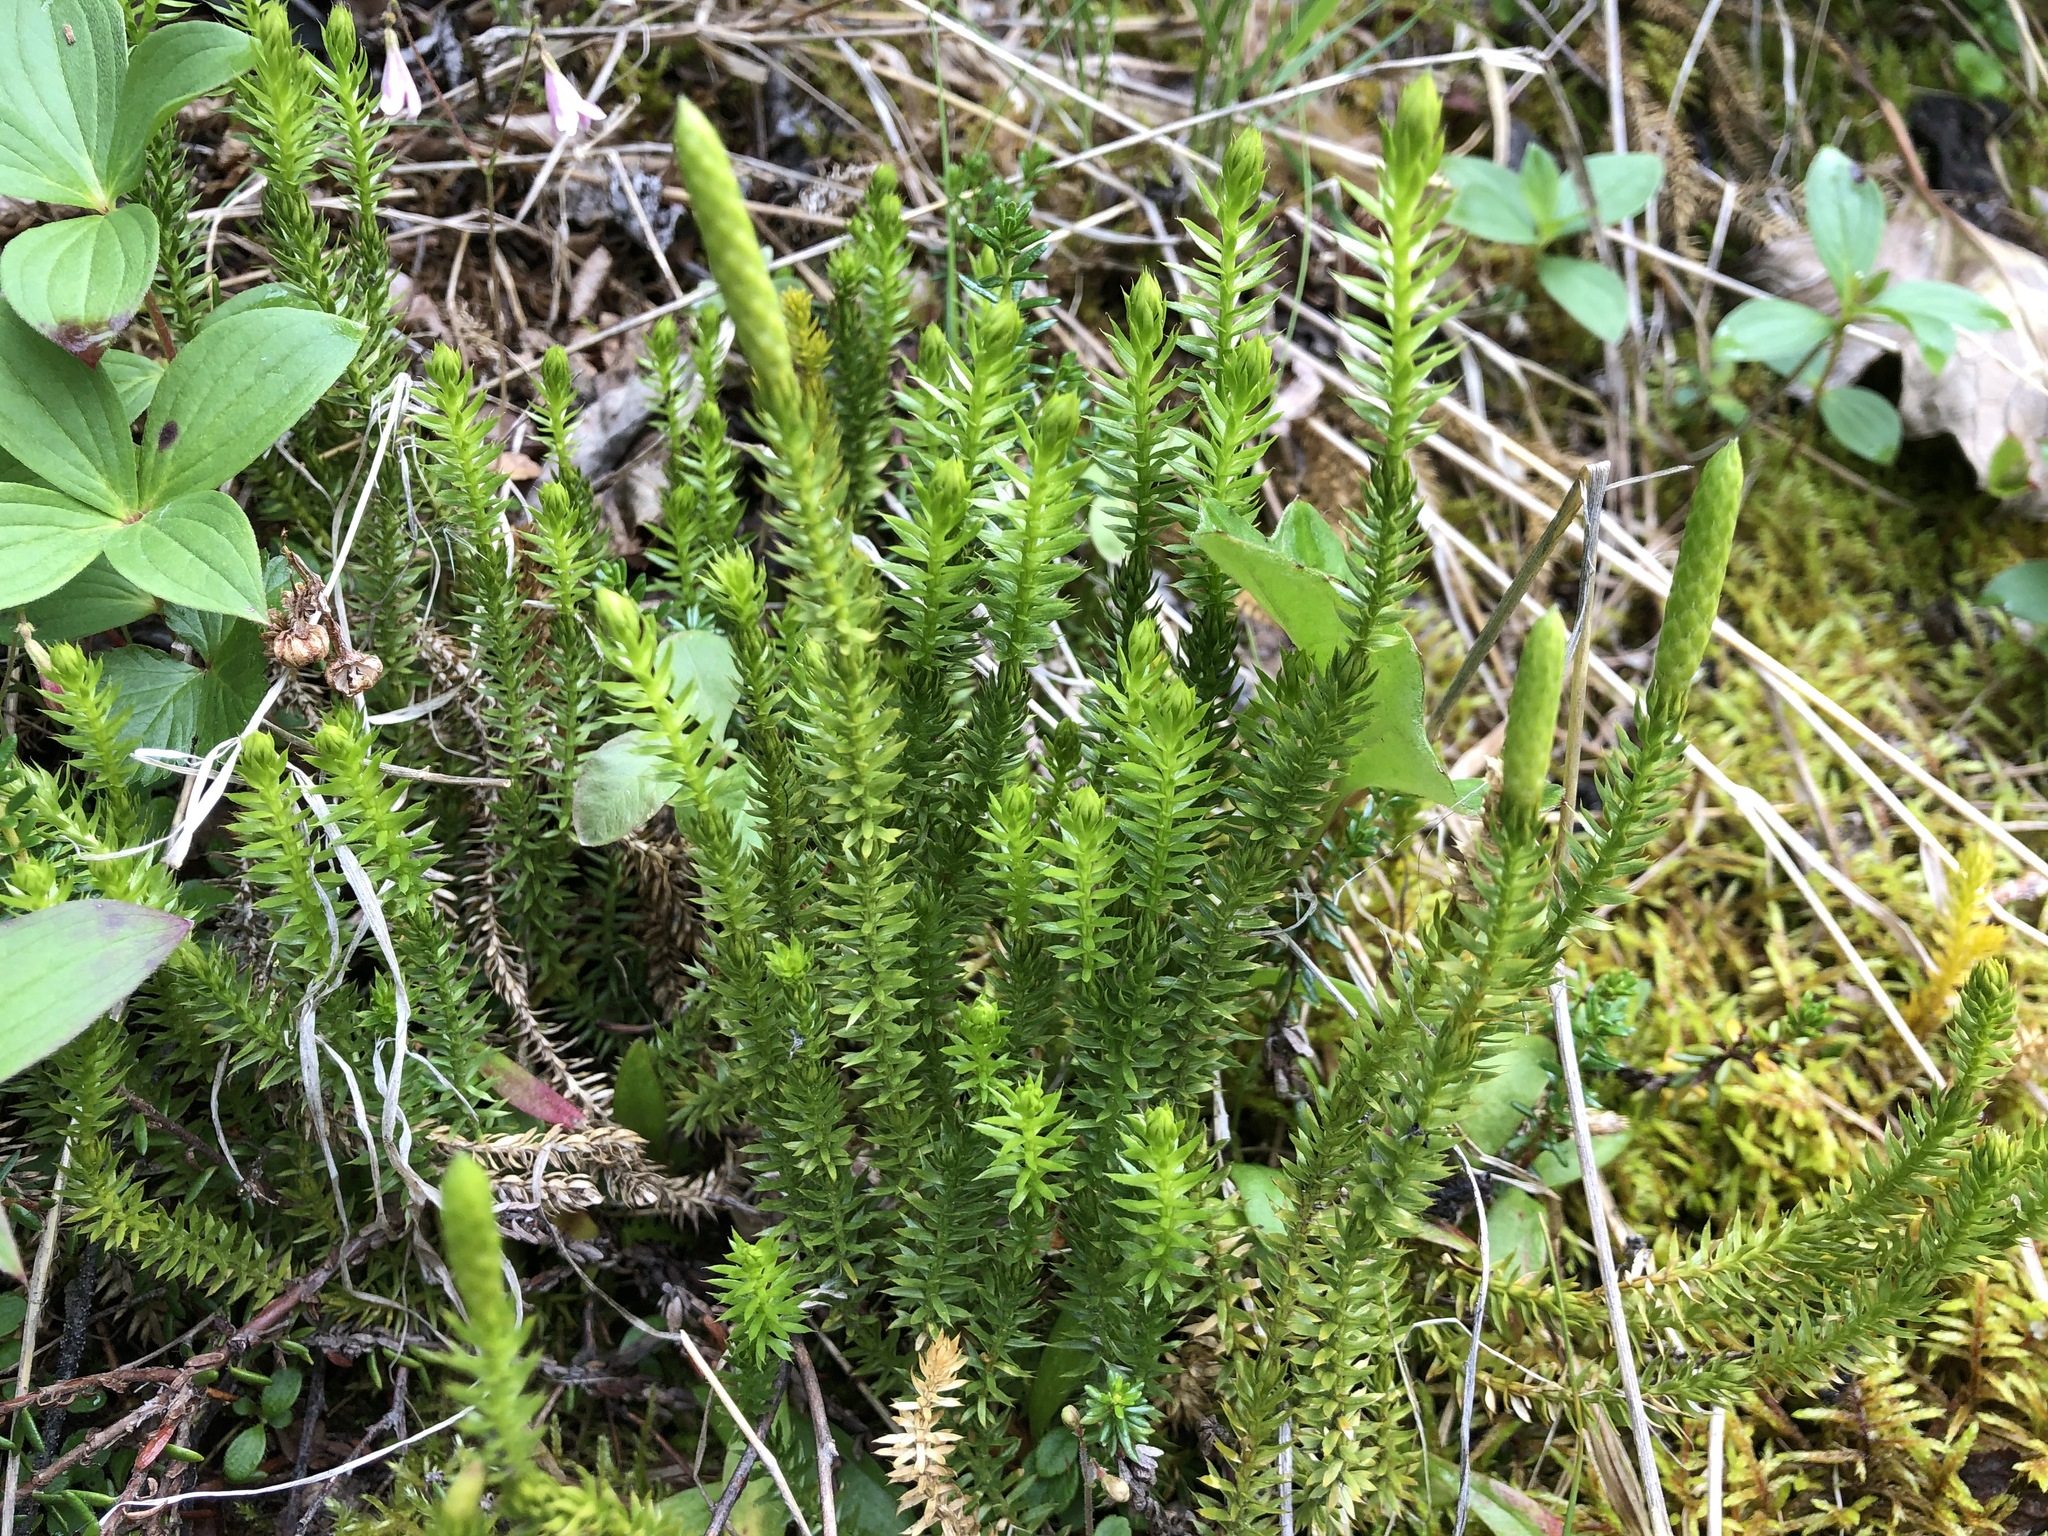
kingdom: Plantae
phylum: Tracheophyta
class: Lycopodiopsida
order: Lycopodiales
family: Lycopodiaceae
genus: Spinulum
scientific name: Spinulum annotinum
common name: Interrupted club-moss
